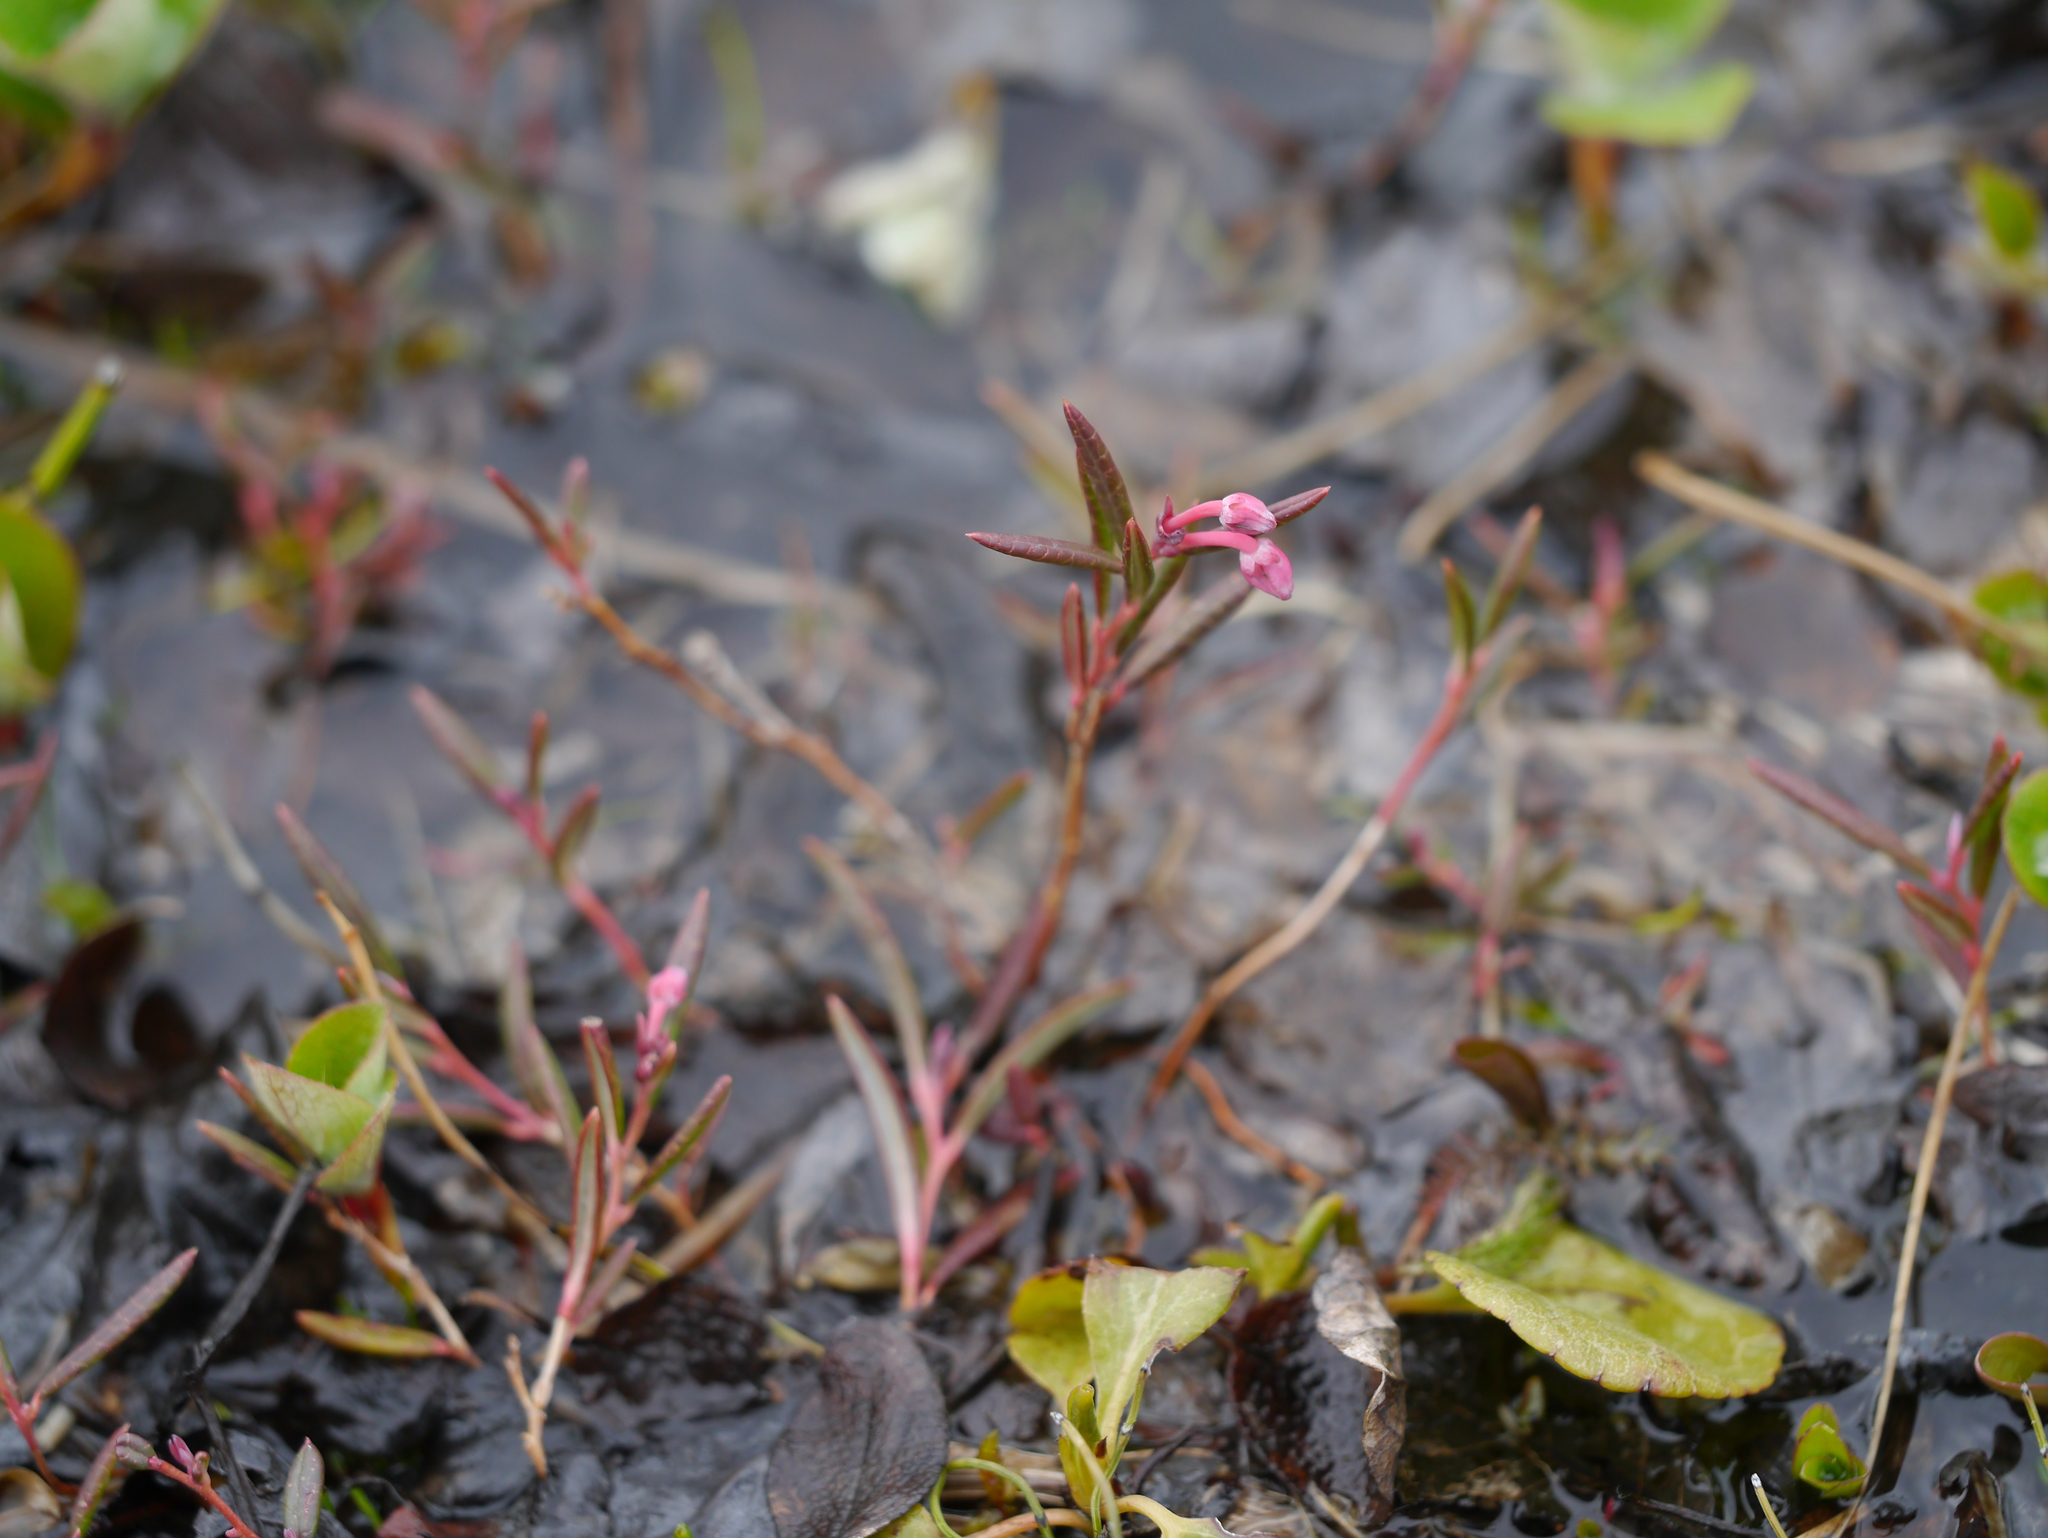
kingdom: Plantae
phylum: Tracheophyta
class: Magnoliopsida
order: Ericales
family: Ericaceae
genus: Andromeda
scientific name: Andromeda polifolia
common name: Bog-rosemary
